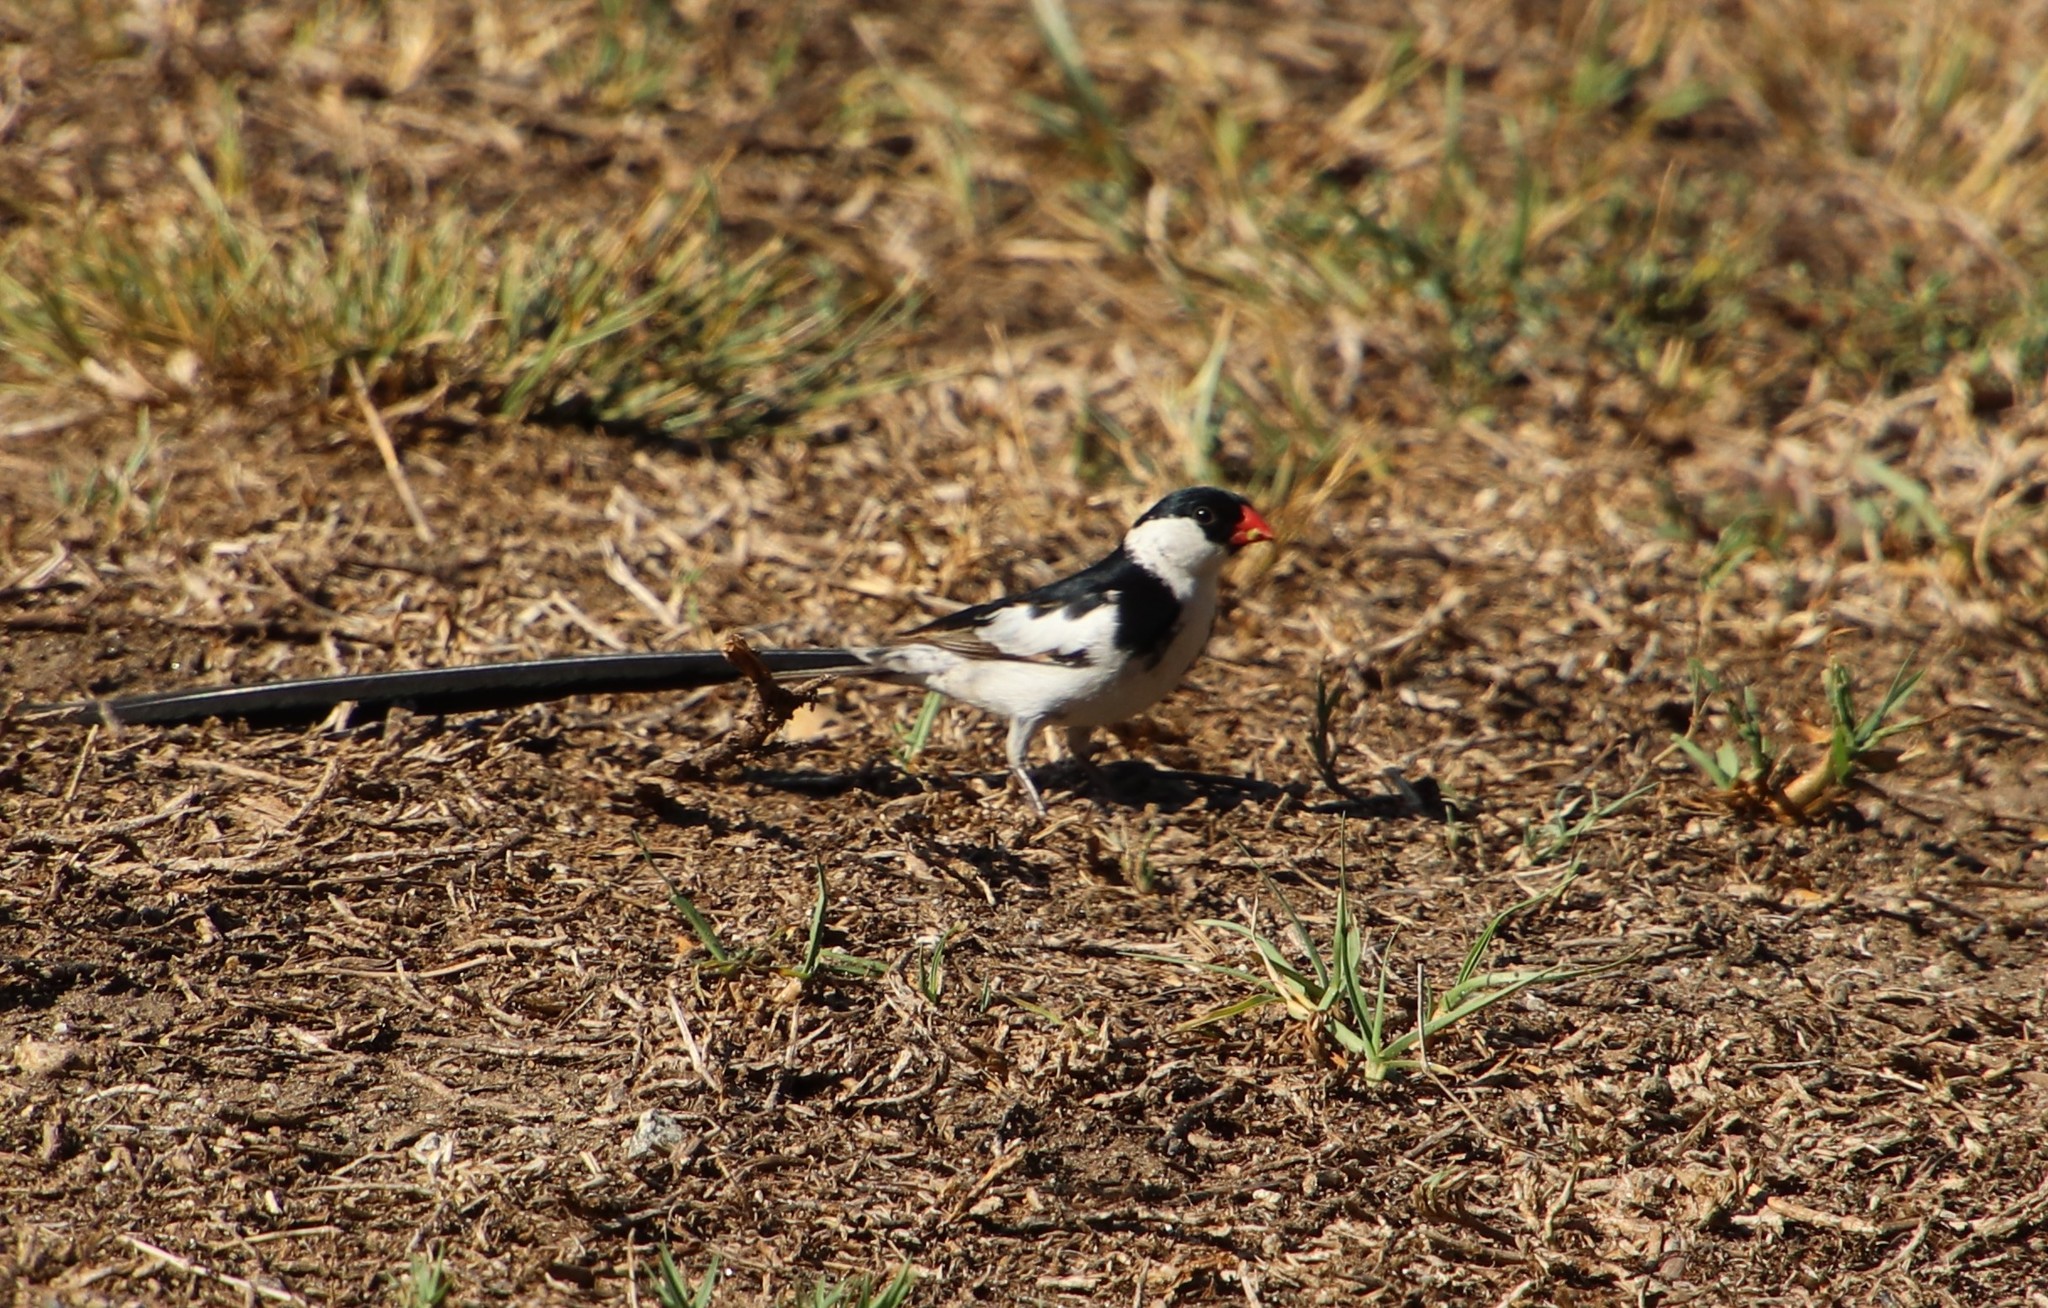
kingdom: Animalia
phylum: Chordata
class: Aves
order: Passeriformes
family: Viduidae
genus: Vidua
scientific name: Vidua macroura
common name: Pin-tailed whydah
